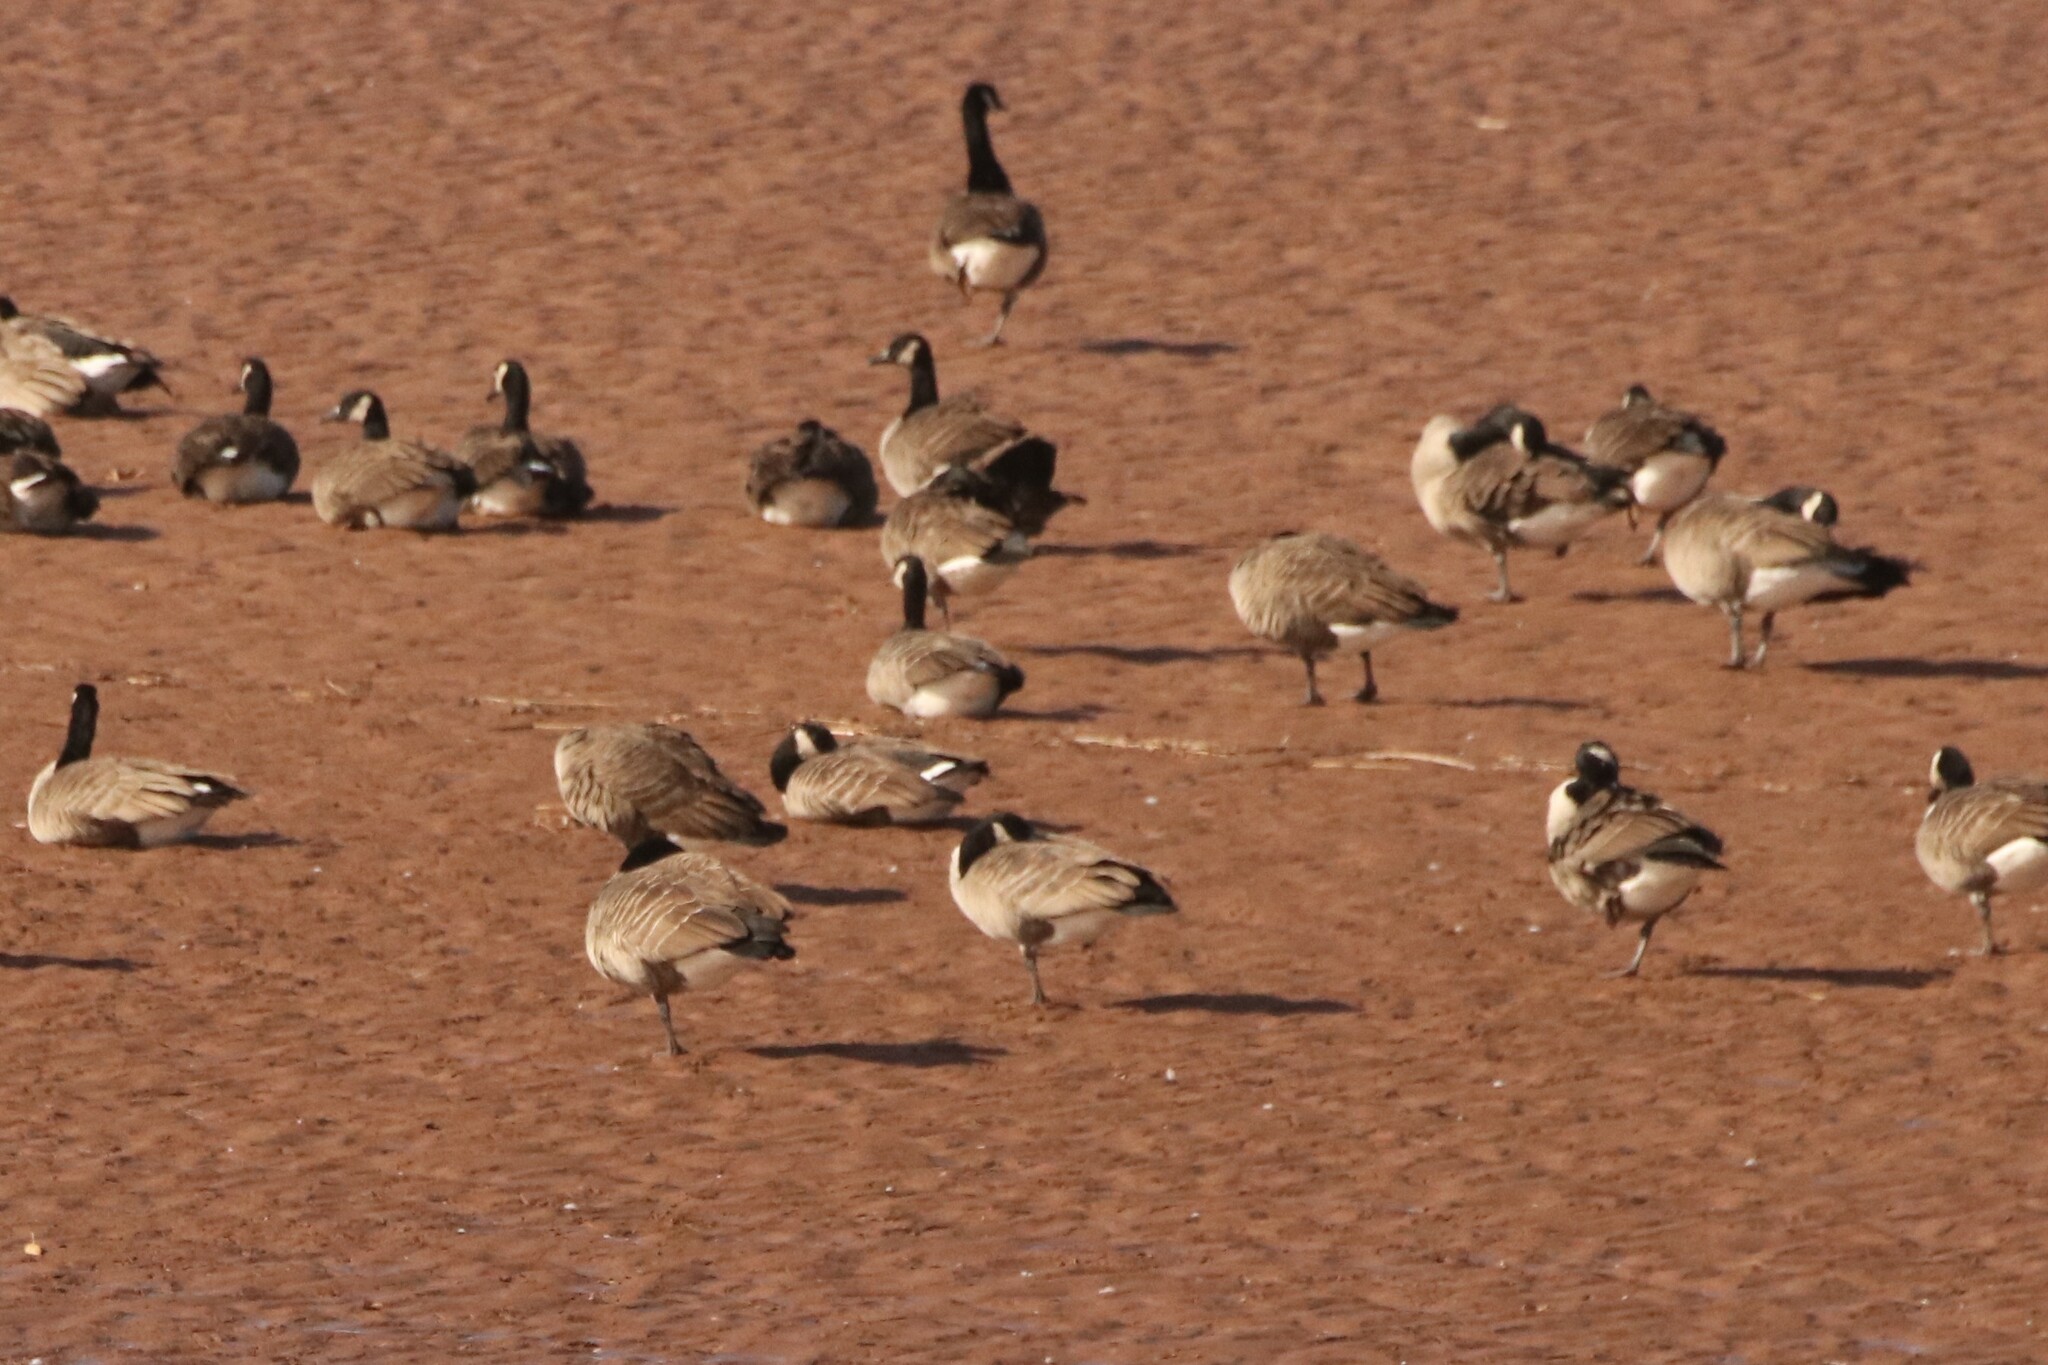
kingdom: Animalia
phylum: Chordata
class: Aves
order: Anseriformes
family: Anatidae
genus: Branta
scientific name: Branta canadensis
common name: Canada goose
